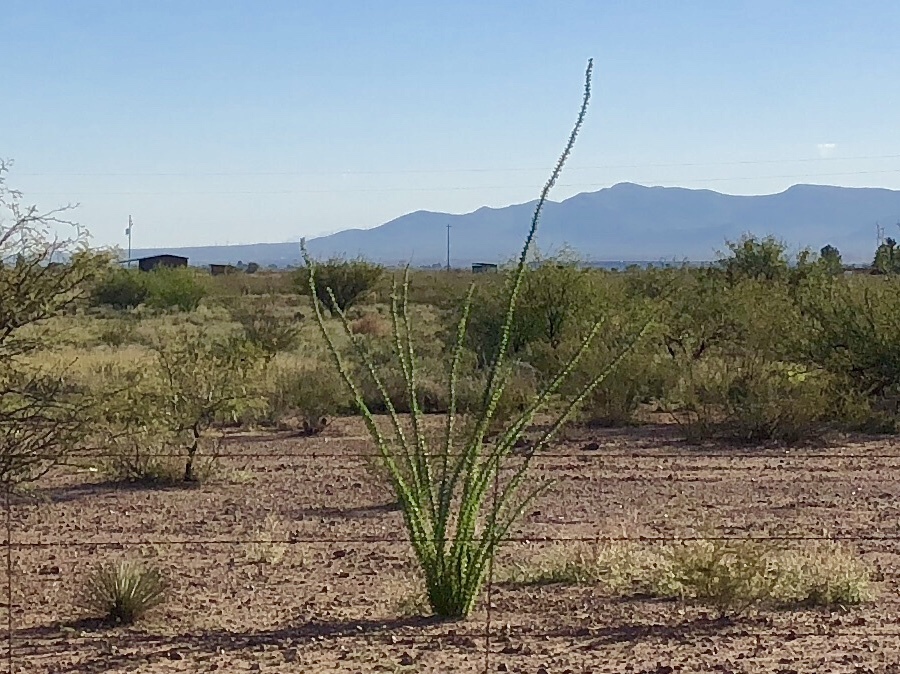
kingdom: Plantae
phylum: Tracheophyta
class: Magnoliopsida
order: Ericales
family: Fouquieriaceae
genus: Fouquieria
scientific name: Fouquieria splendens
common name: Vine-cactus
